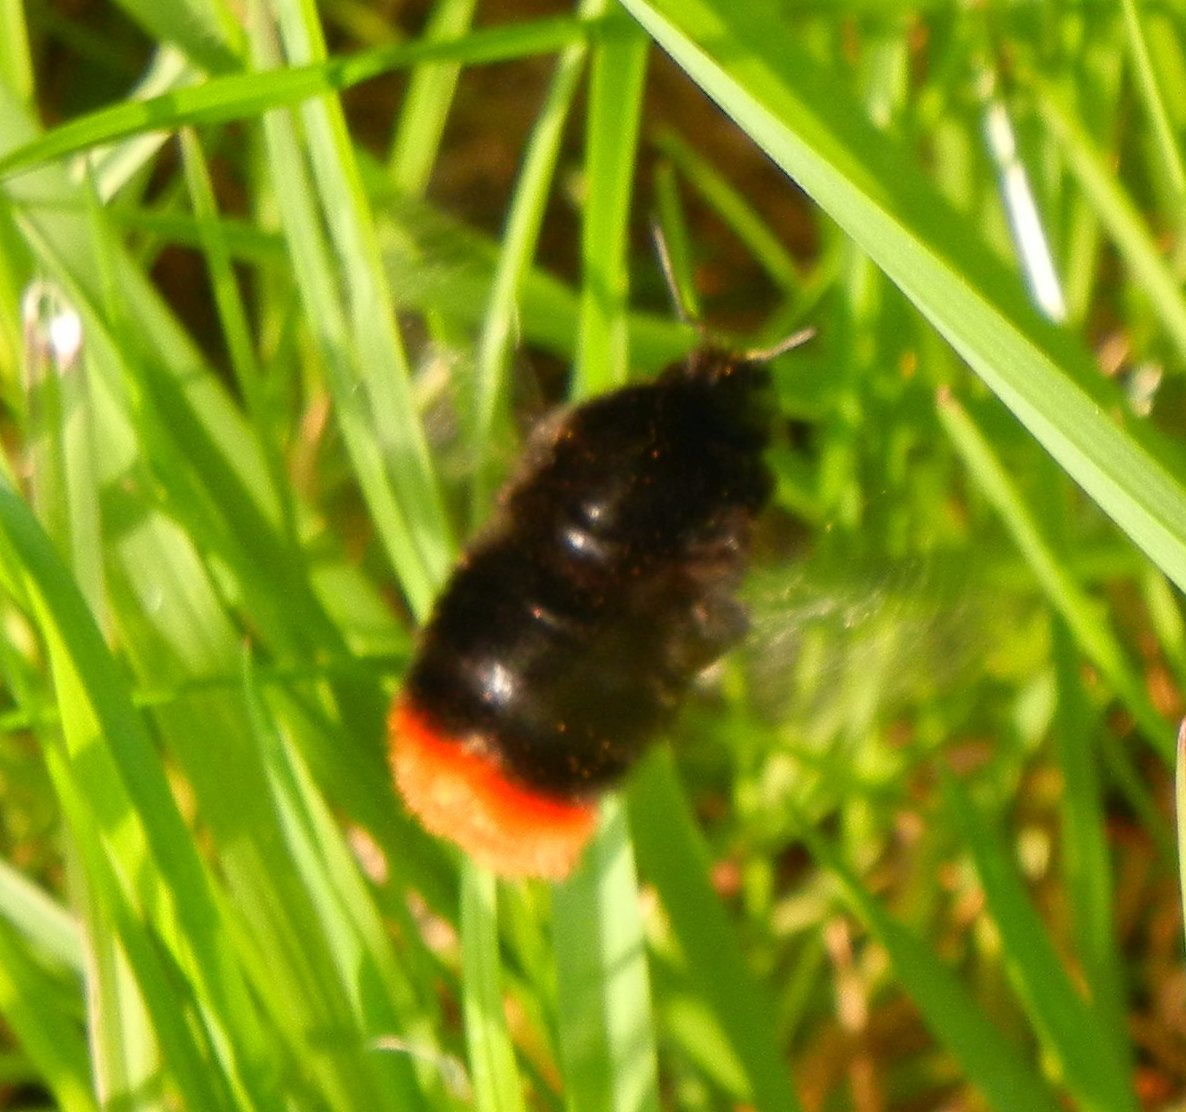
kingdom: Animalia
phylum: Arthropoda
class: Insecta
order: Hymenoptera
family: Apidae
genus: Bombus
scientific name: Bombus lapidarius
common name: Large red-tailed humble-bee
